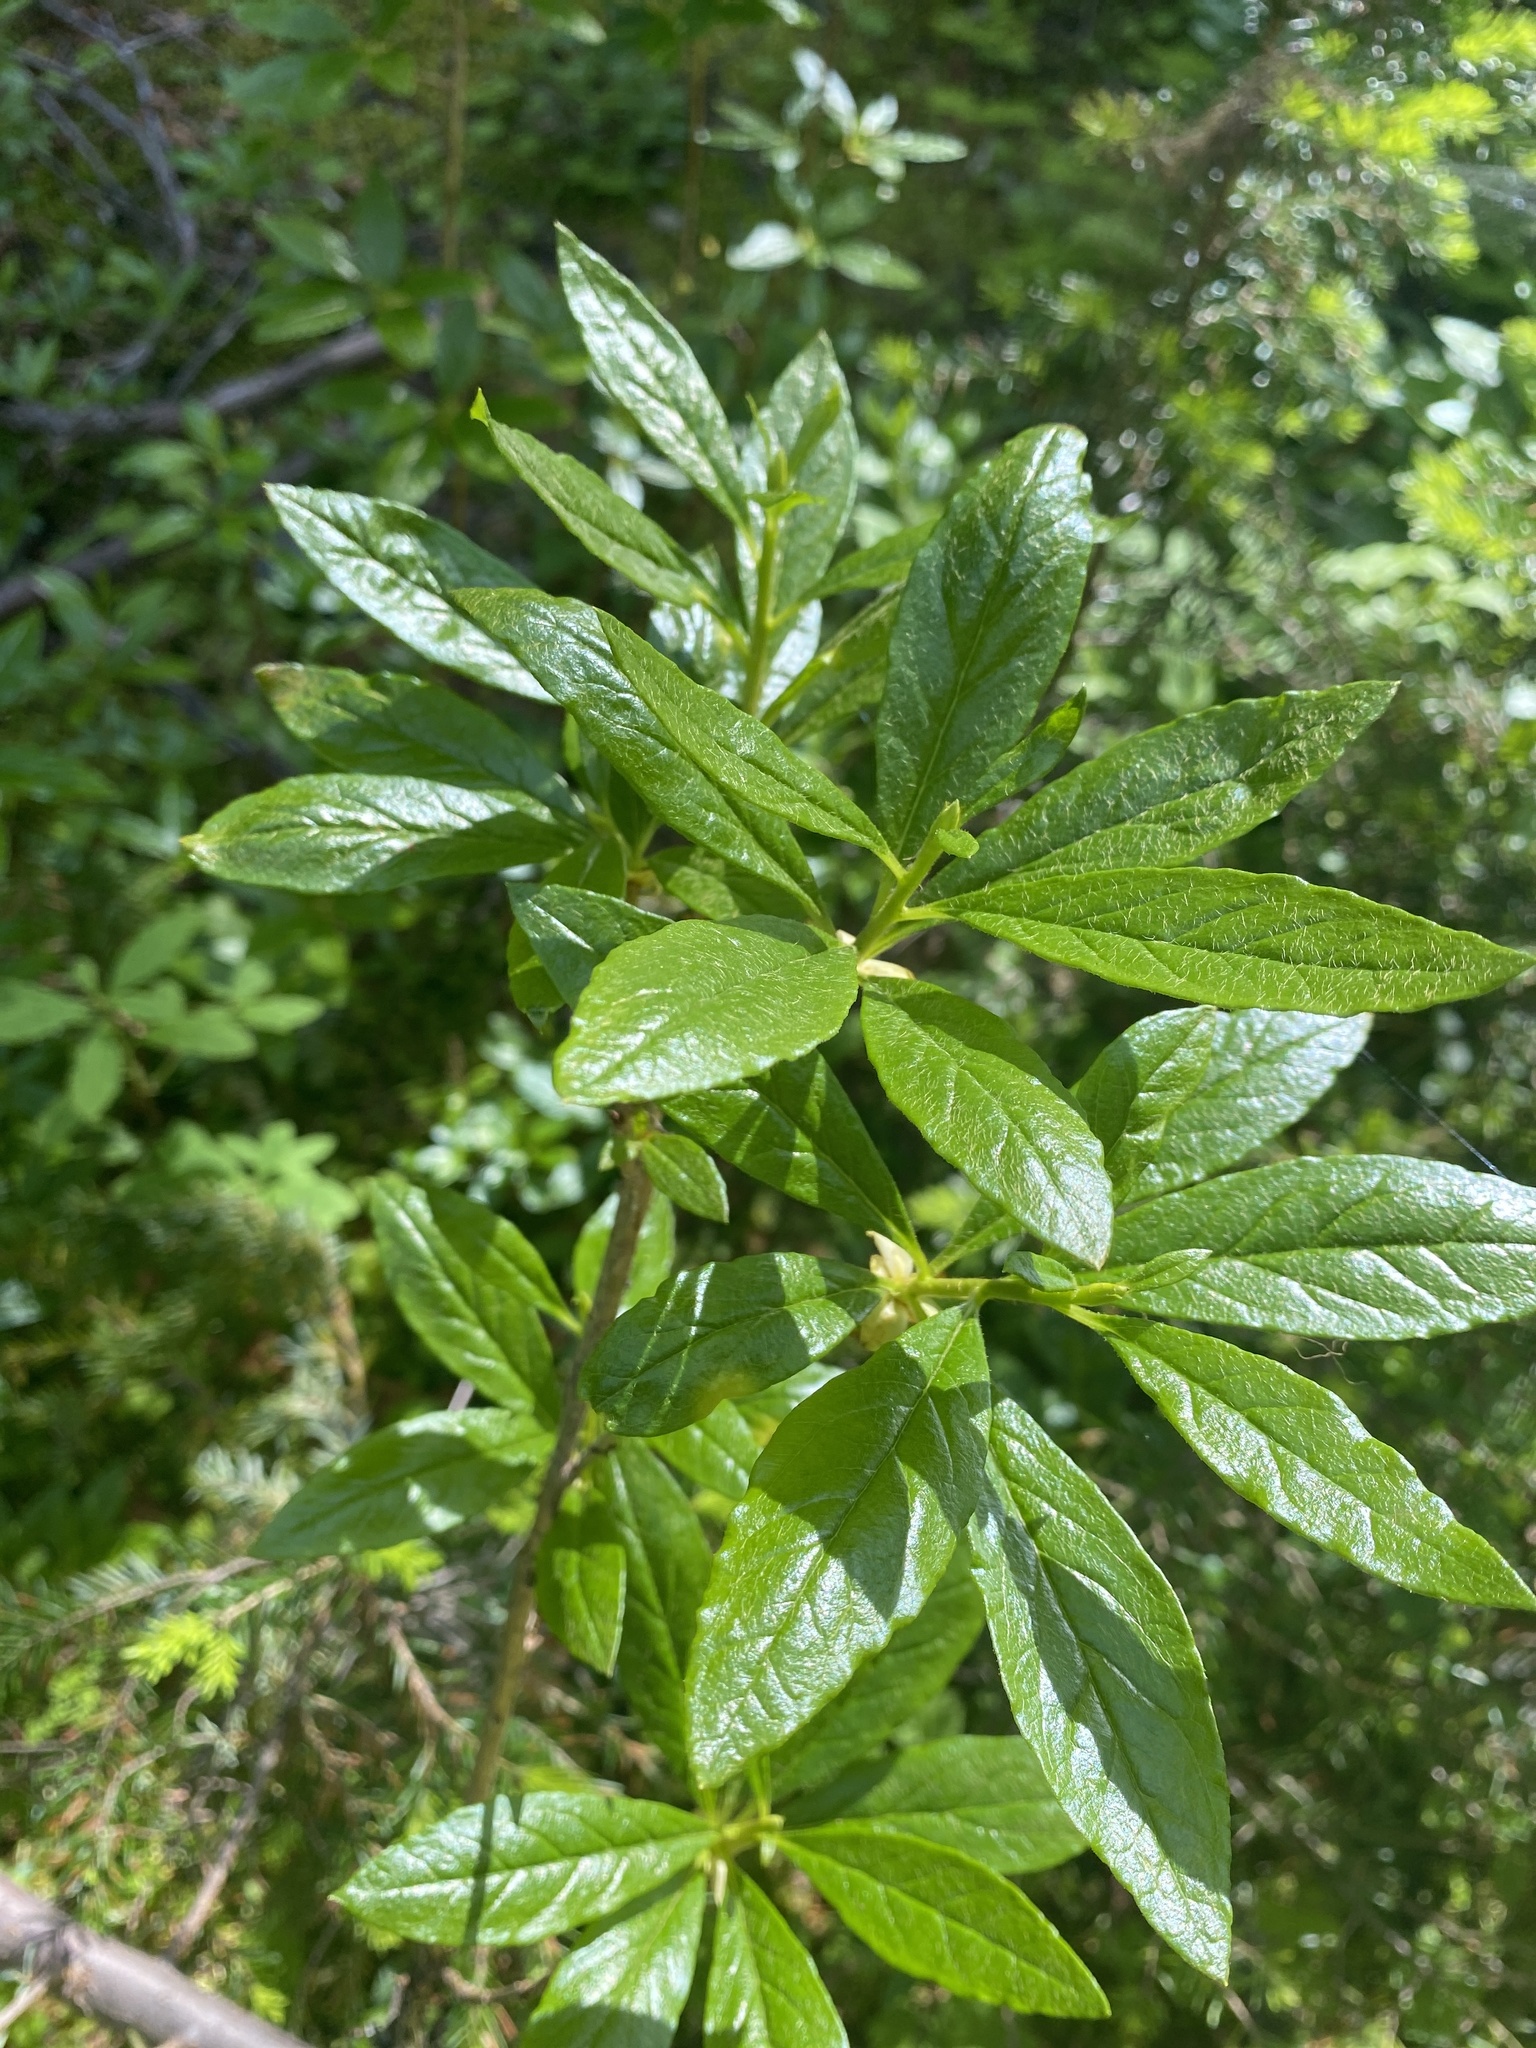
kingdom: Plantae
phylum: Tracheophyta
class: Magnoliopsida
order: Ericales
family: Ericaceae
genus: Rhododendron
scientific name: Rhododendron albiflorum
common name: White rhododendron
